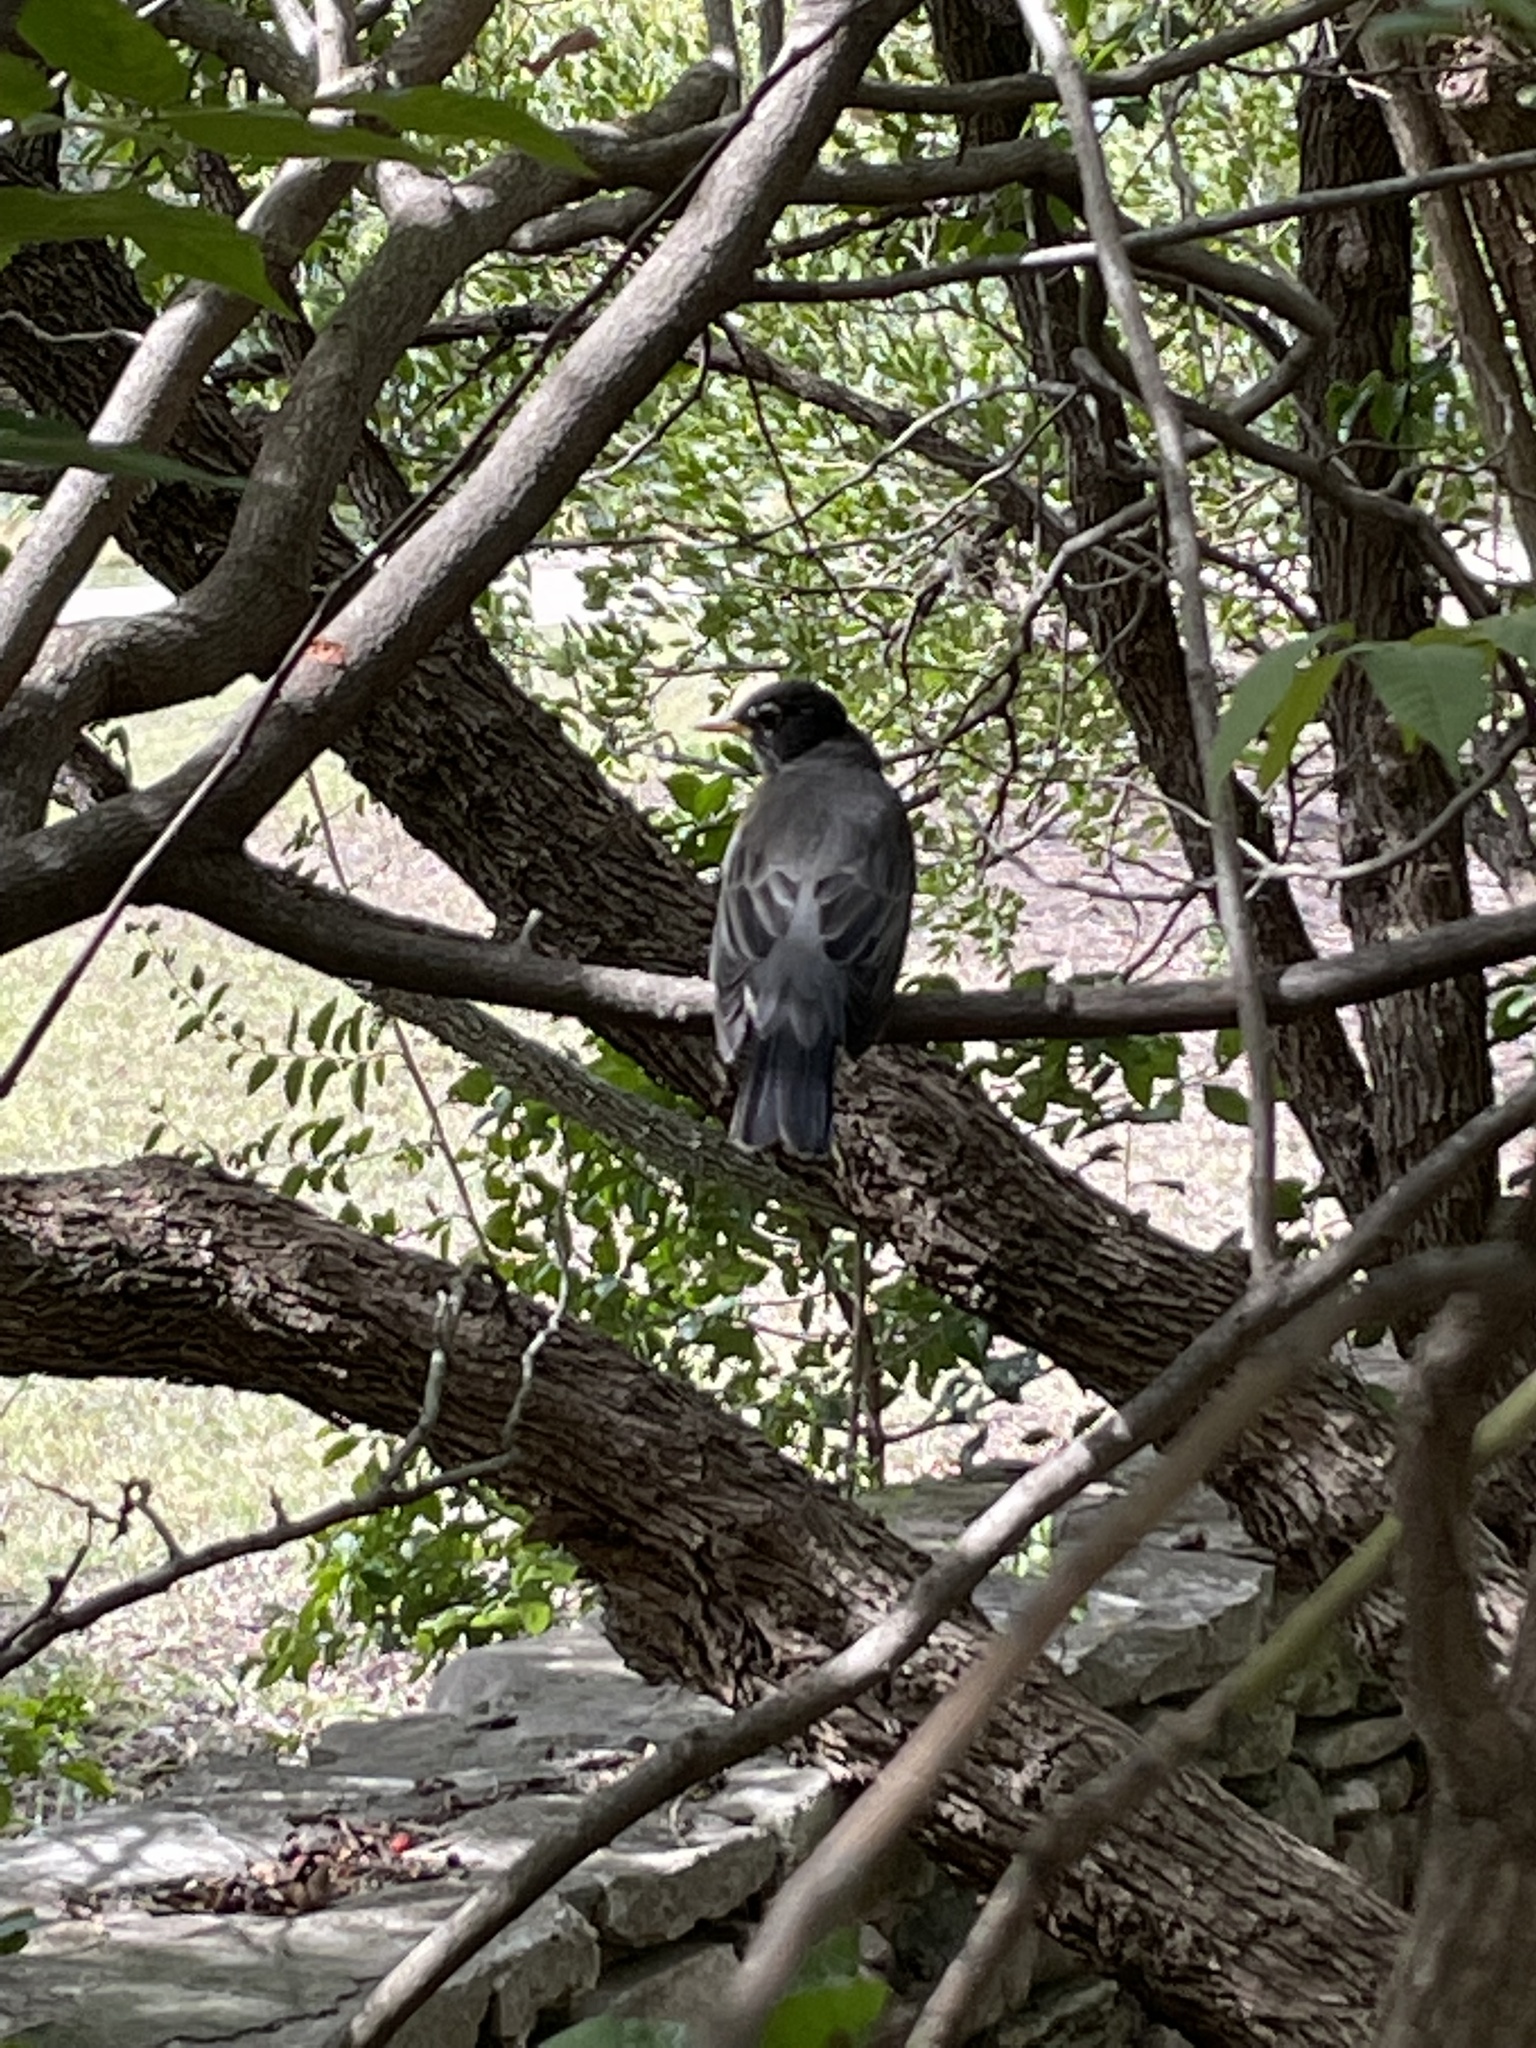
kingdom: Animalia
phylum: Chordata
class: Aves
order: Passeriformes
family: Turdidae
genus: Turdus
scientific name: Turdus migratorius
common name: American robin
